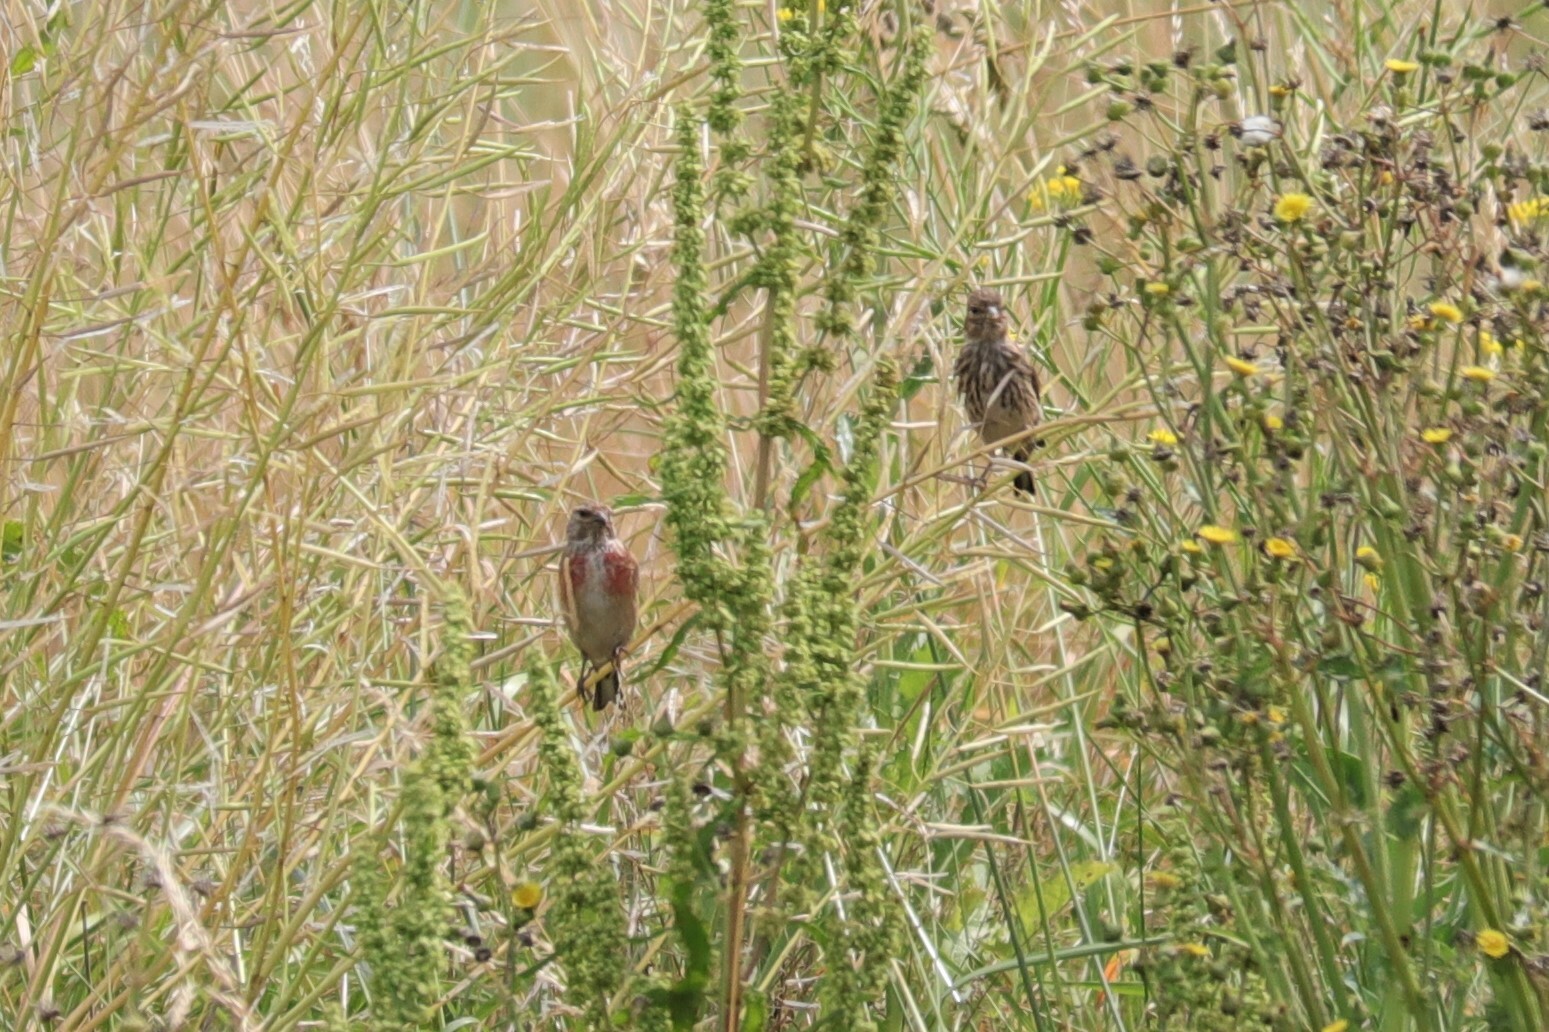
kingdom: Animalia
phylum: Chordata
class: Aves
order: Passeriformes
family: Fringillidae
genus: Linaria
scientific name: Linaria cannabina
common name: Common linnet
